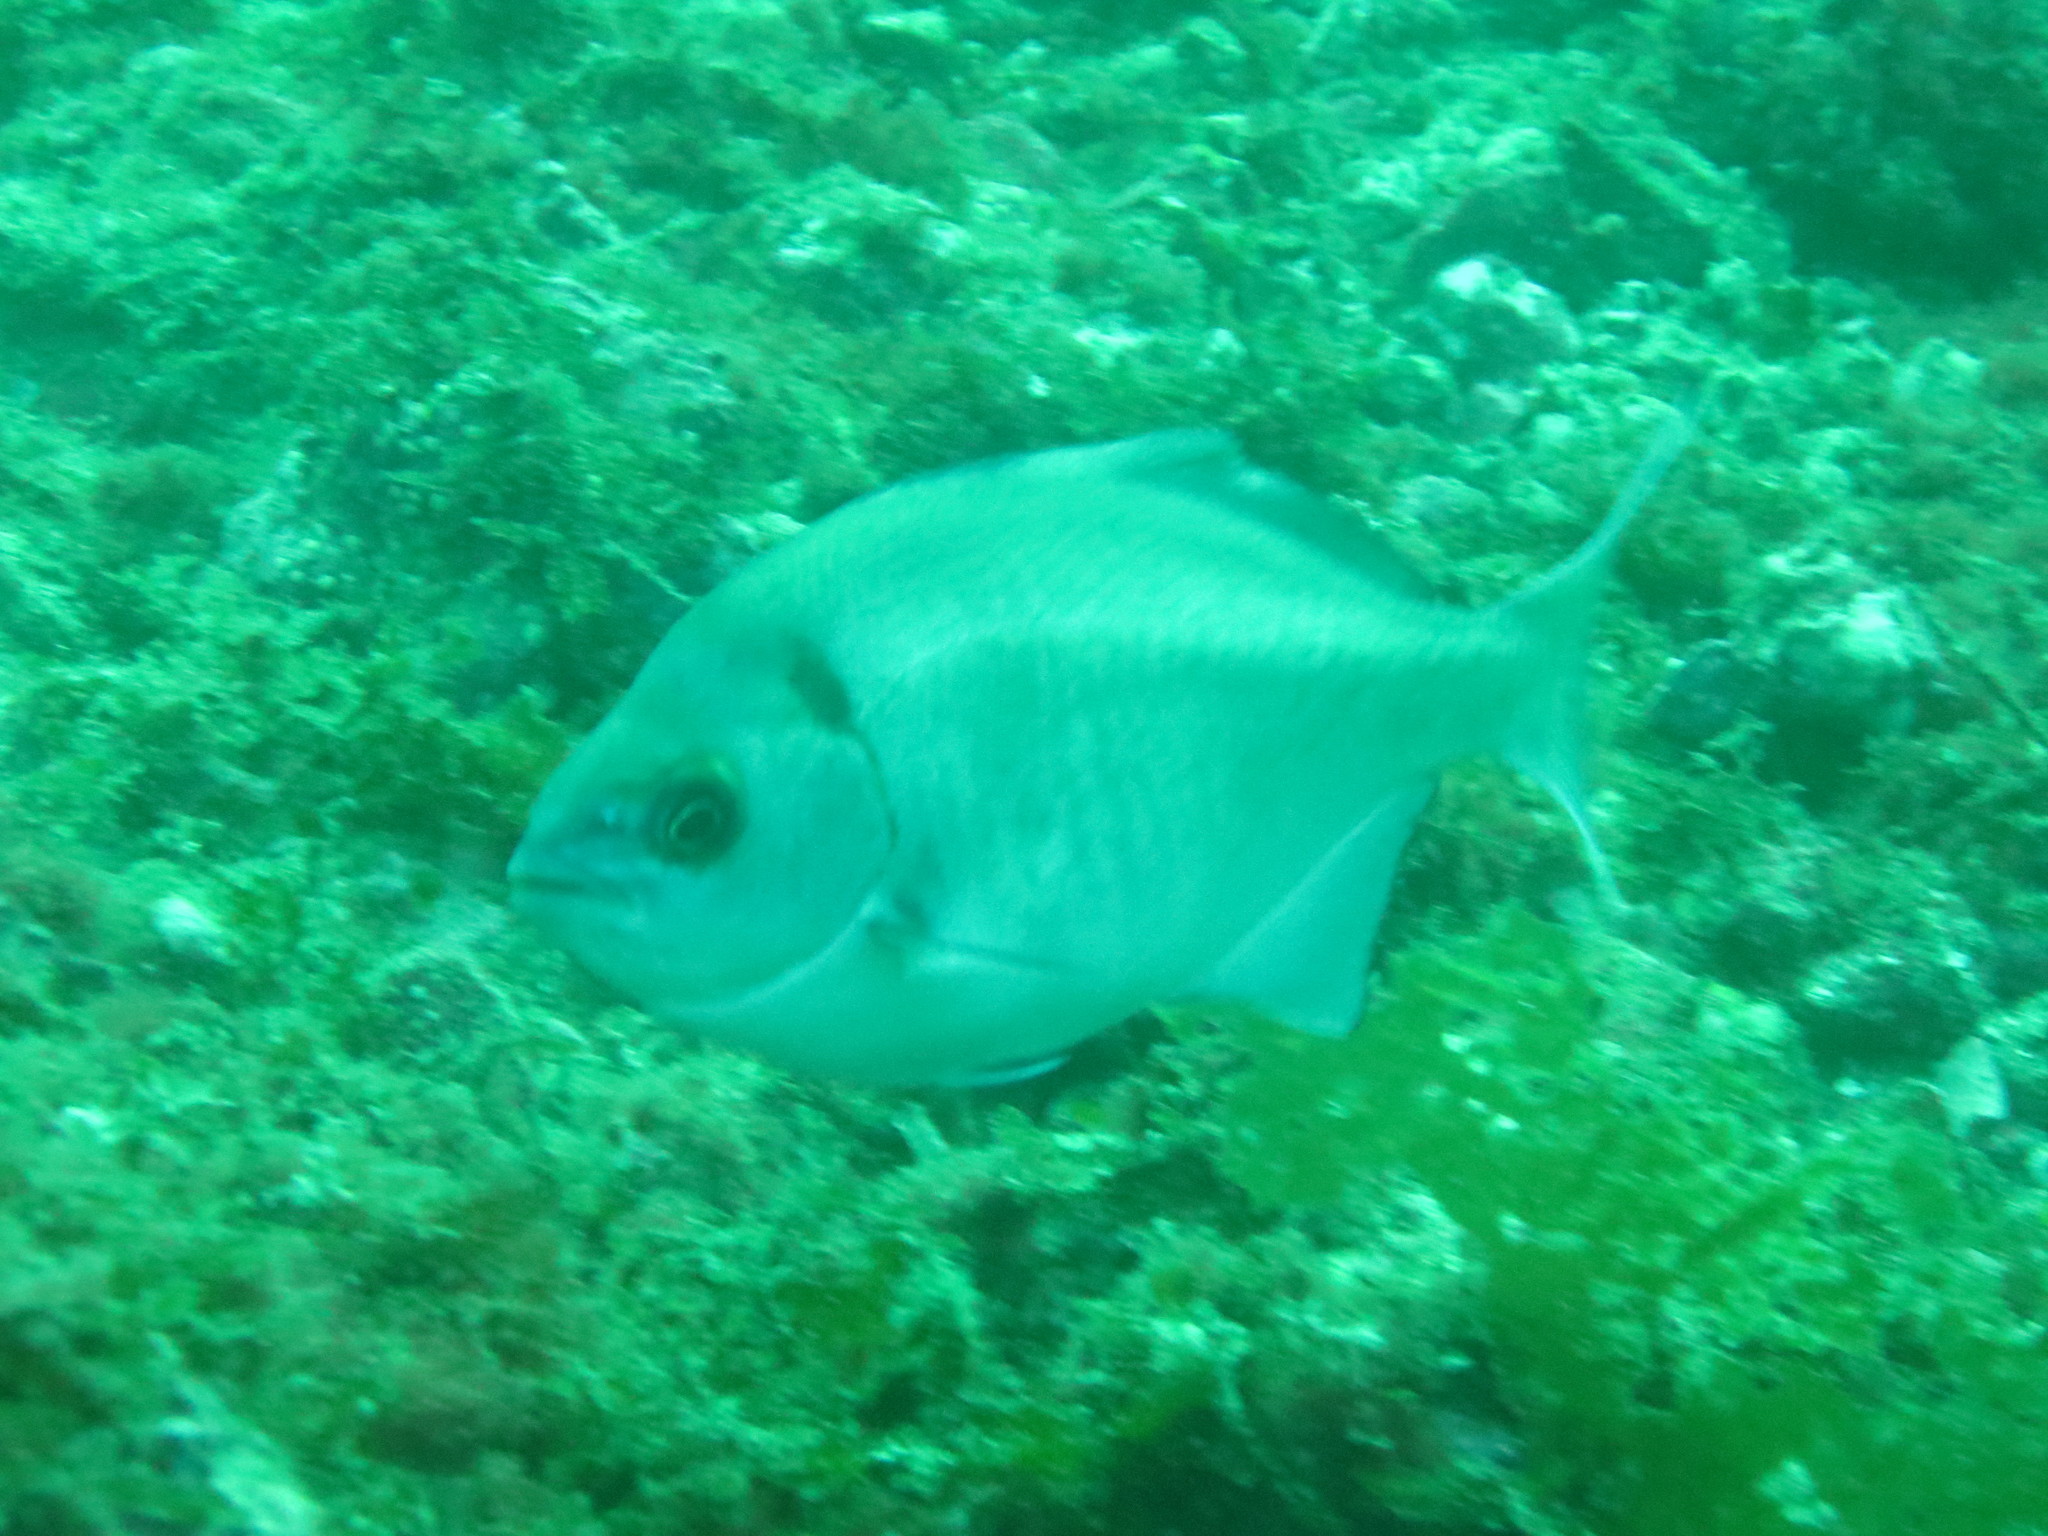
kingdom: Animalia
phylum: Chordata
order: Perciformes
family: Kyphosidae
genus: Medialuna
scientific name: Medialuna californiensis
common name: Halfmoon
